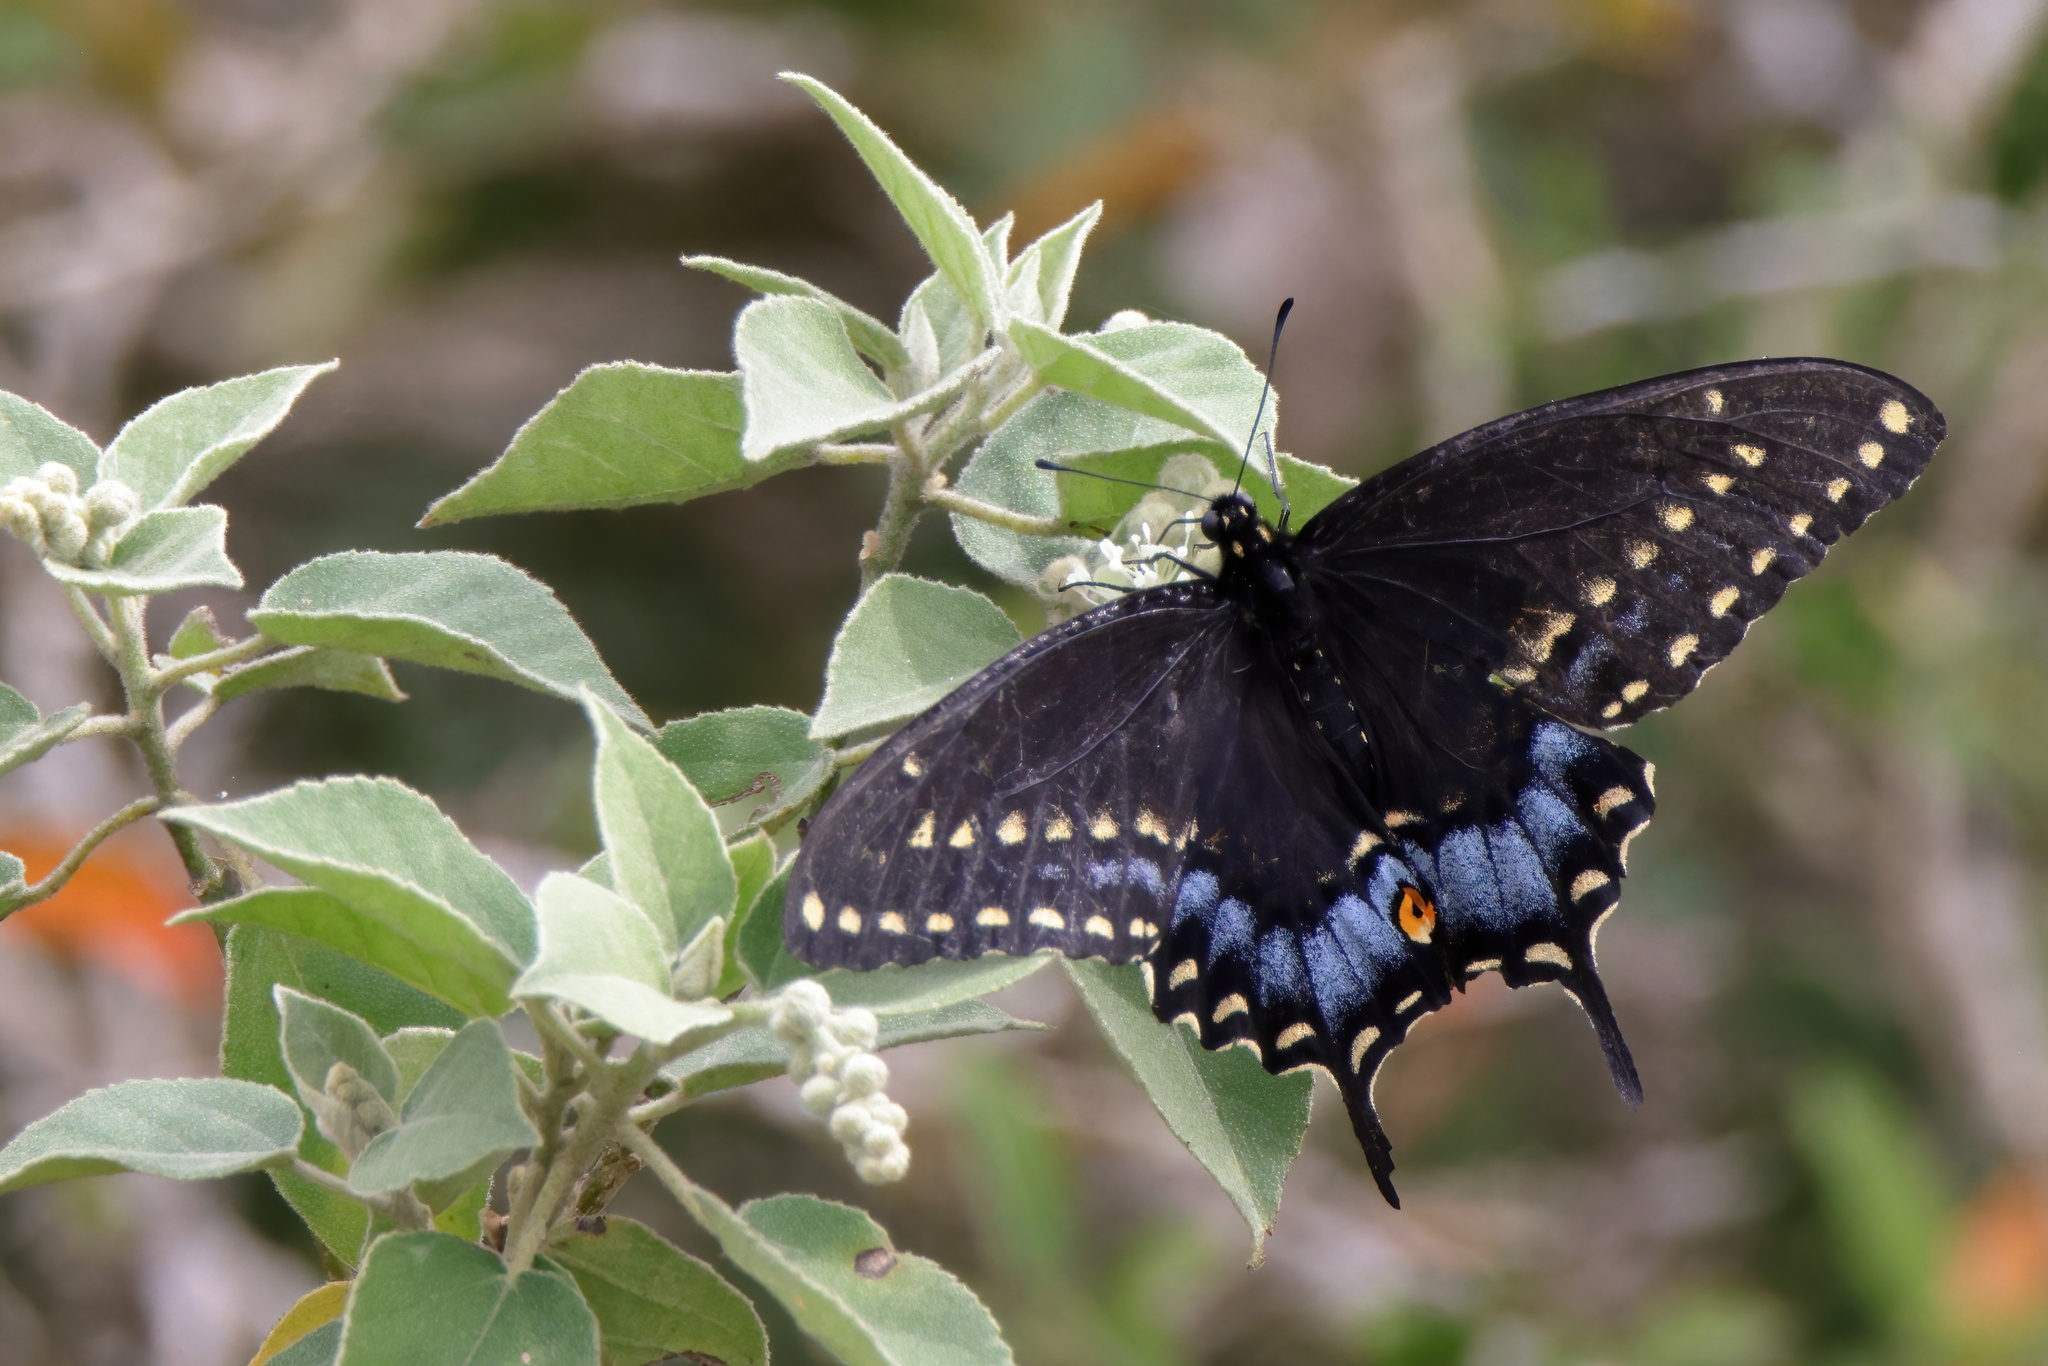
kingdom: Animalia
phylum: Arthropoda
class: Insecta
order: Lepidoptera
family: Papilionidae
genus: Papilio
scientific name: Papilio polyxenes
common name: Black swallowtail
